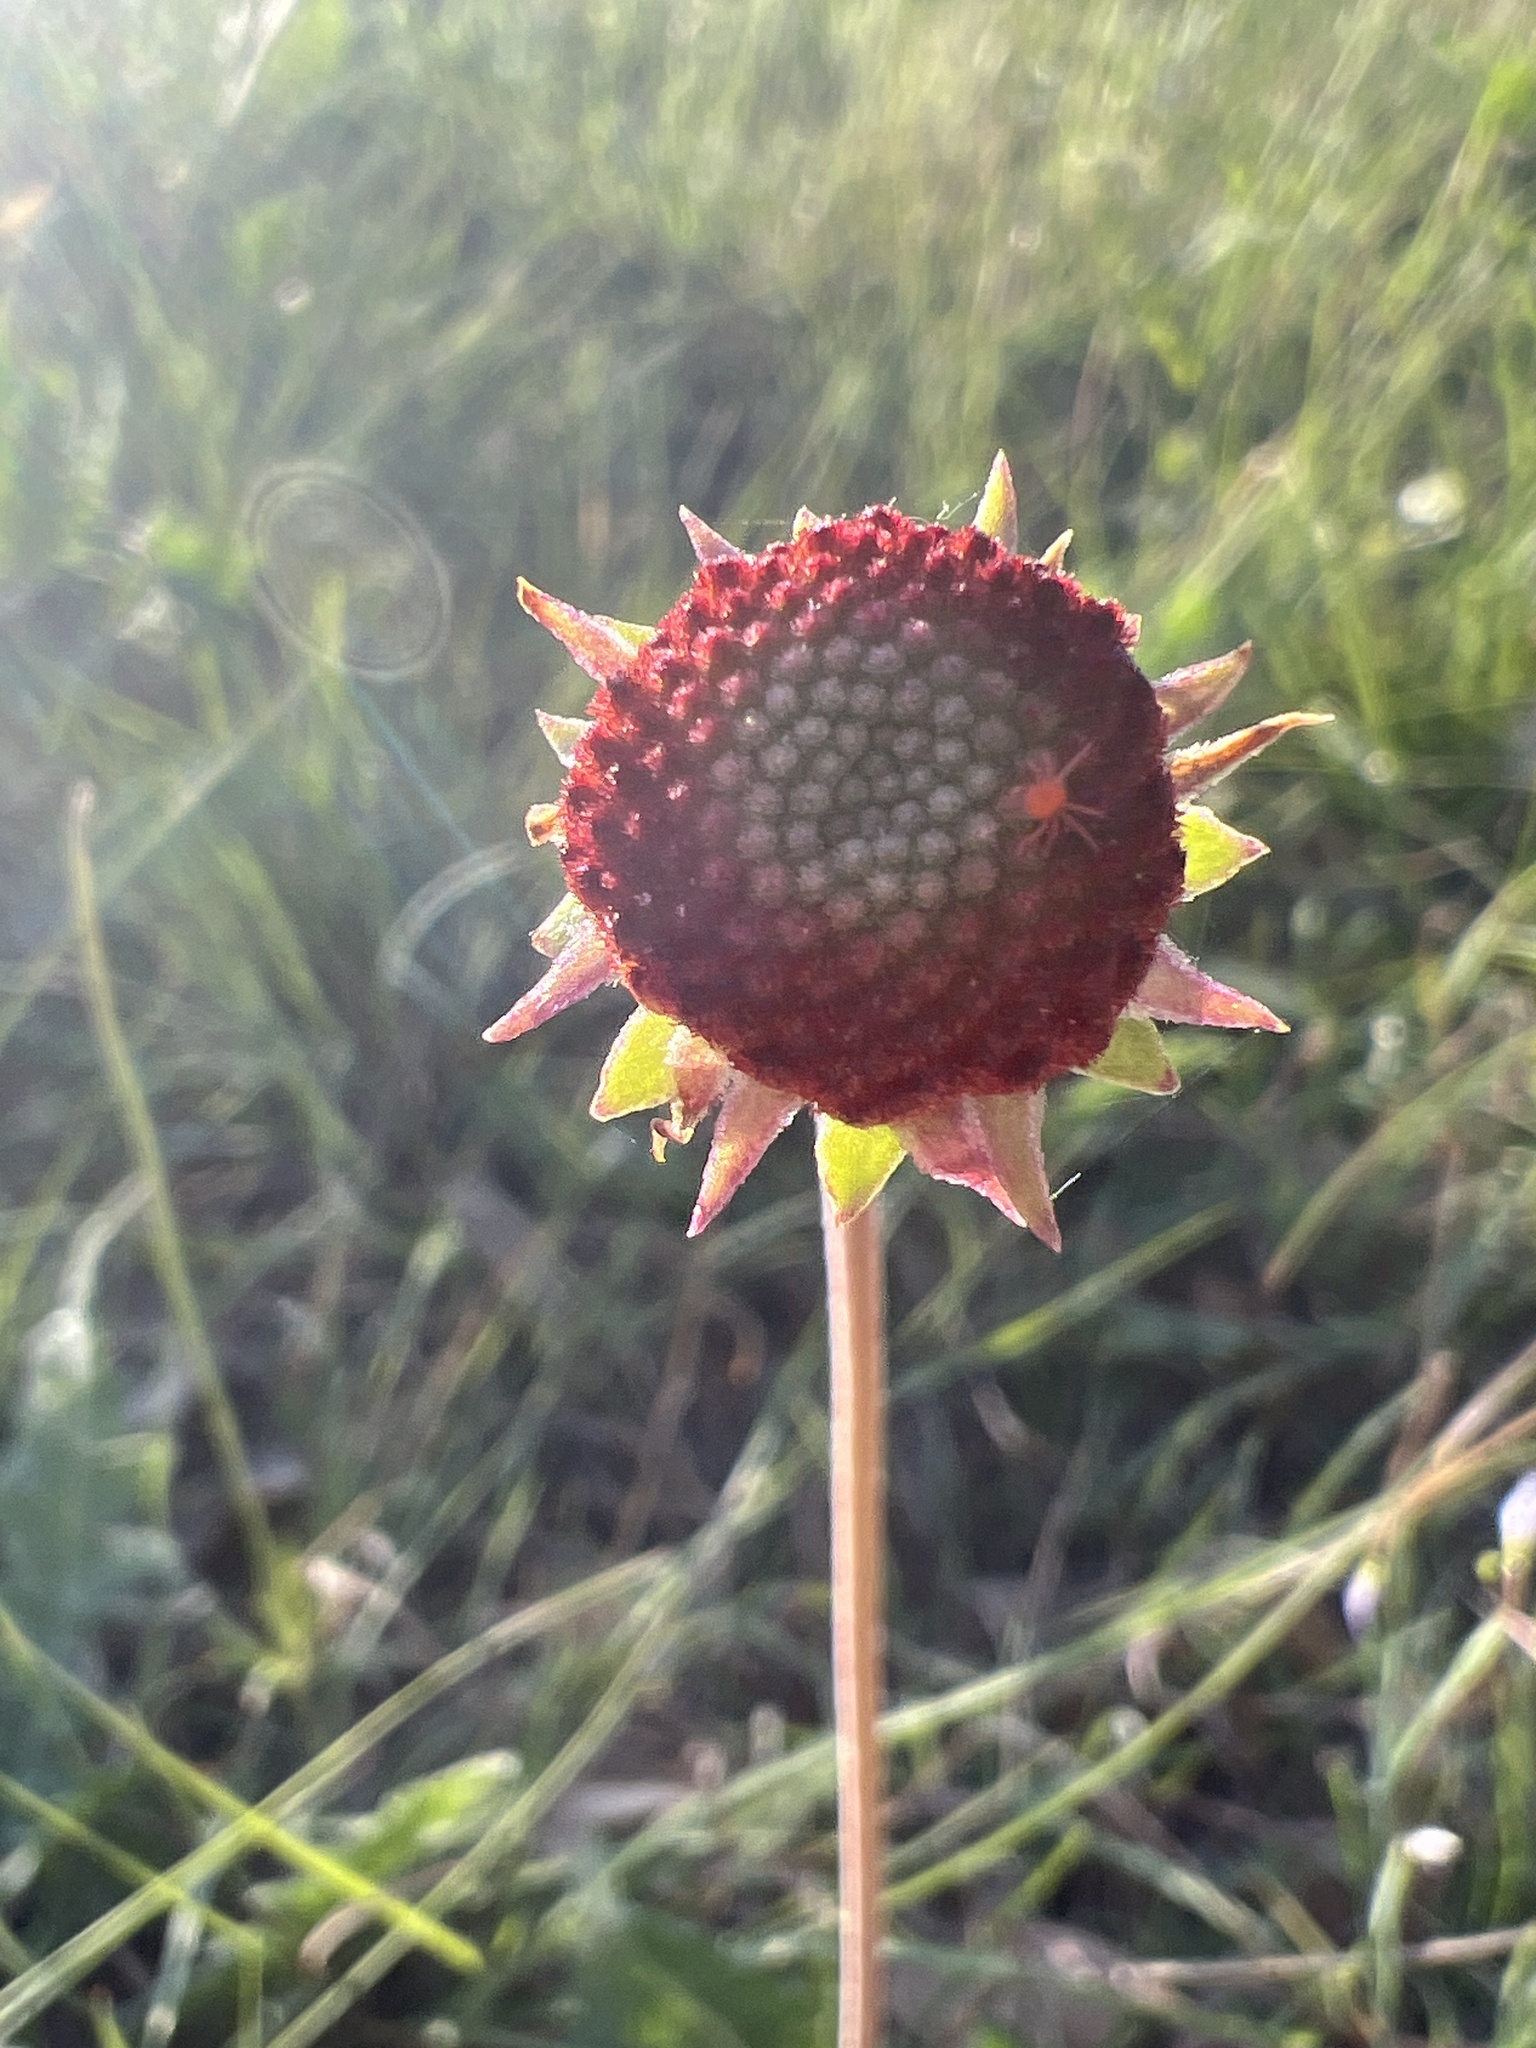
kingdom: Plantae
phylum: Tracheophyta
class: Magnoliopsida
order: Asterales
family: Asteraceae
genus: Gaillardia
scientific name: Gaillardia suavis
